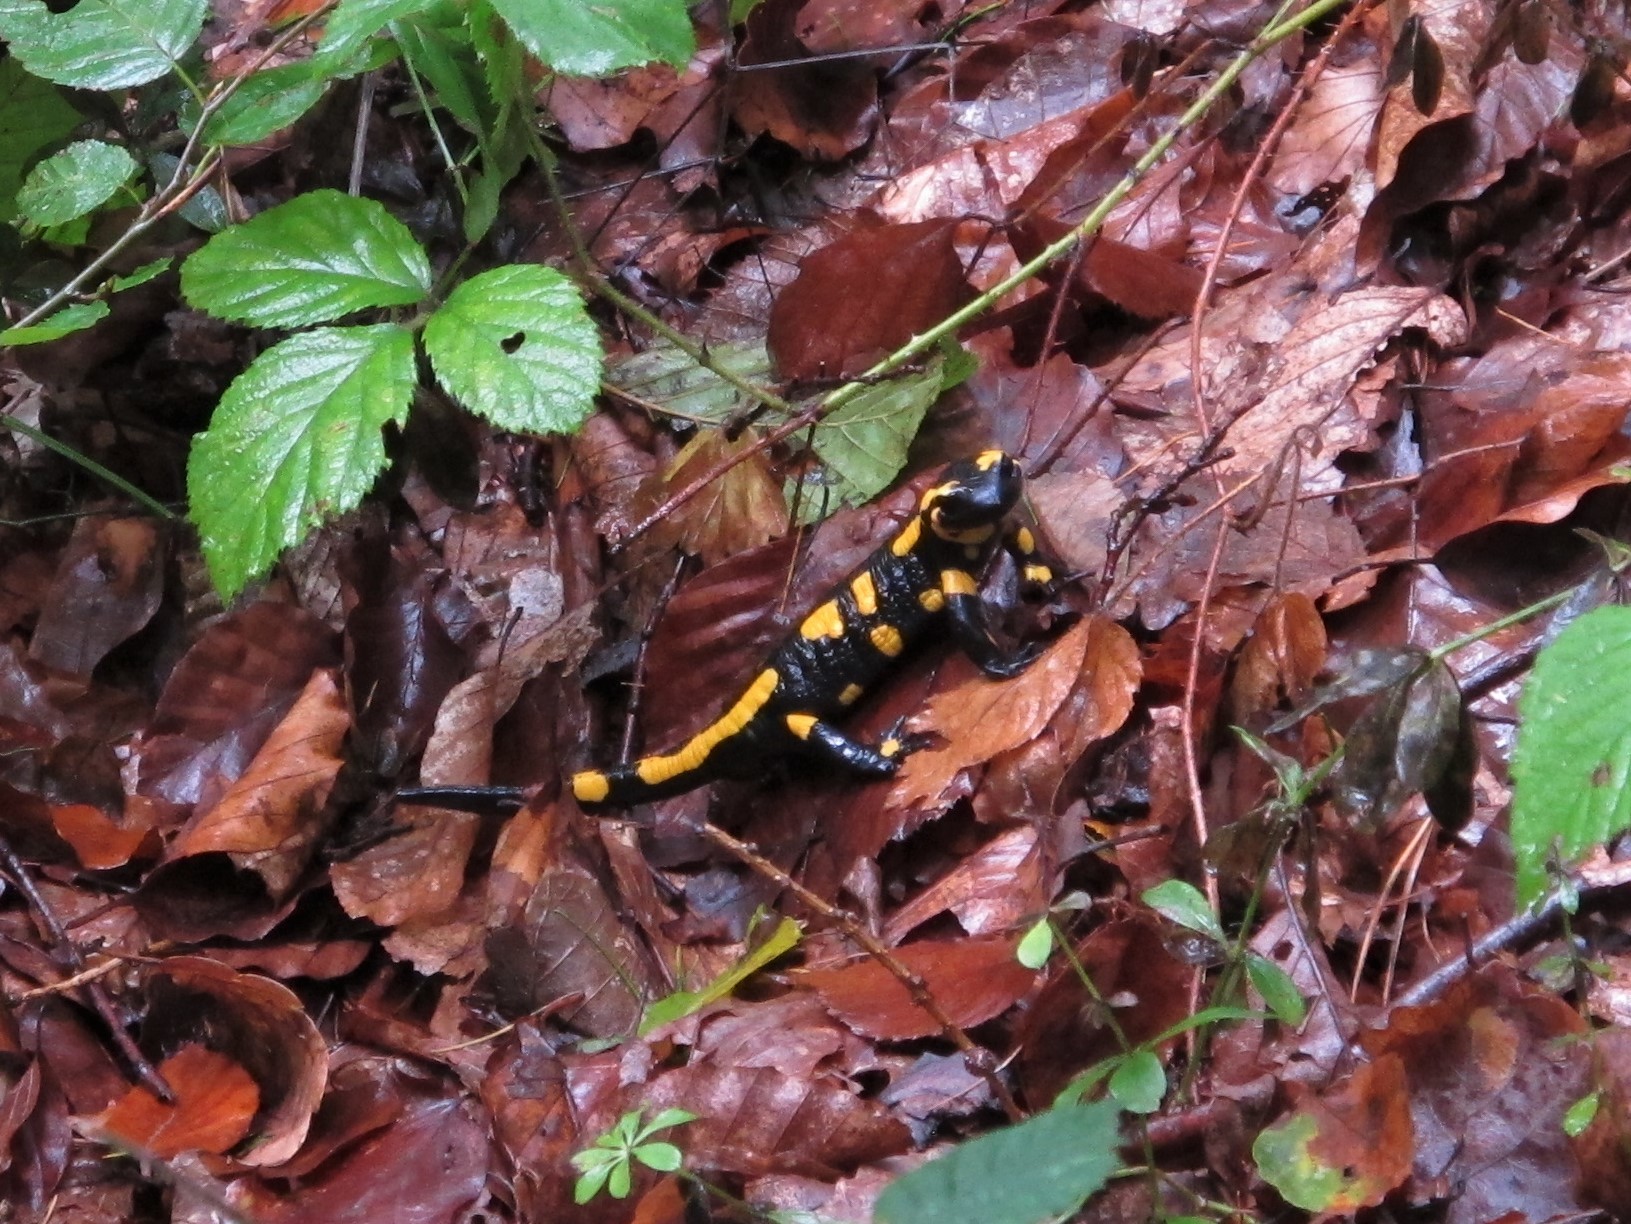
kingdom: Animalia
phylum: Chordata
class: Amphibia
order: Caudata
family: Salamandridae
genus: Salamandra
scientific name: Salamandra salamandra
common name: Fire salamander
